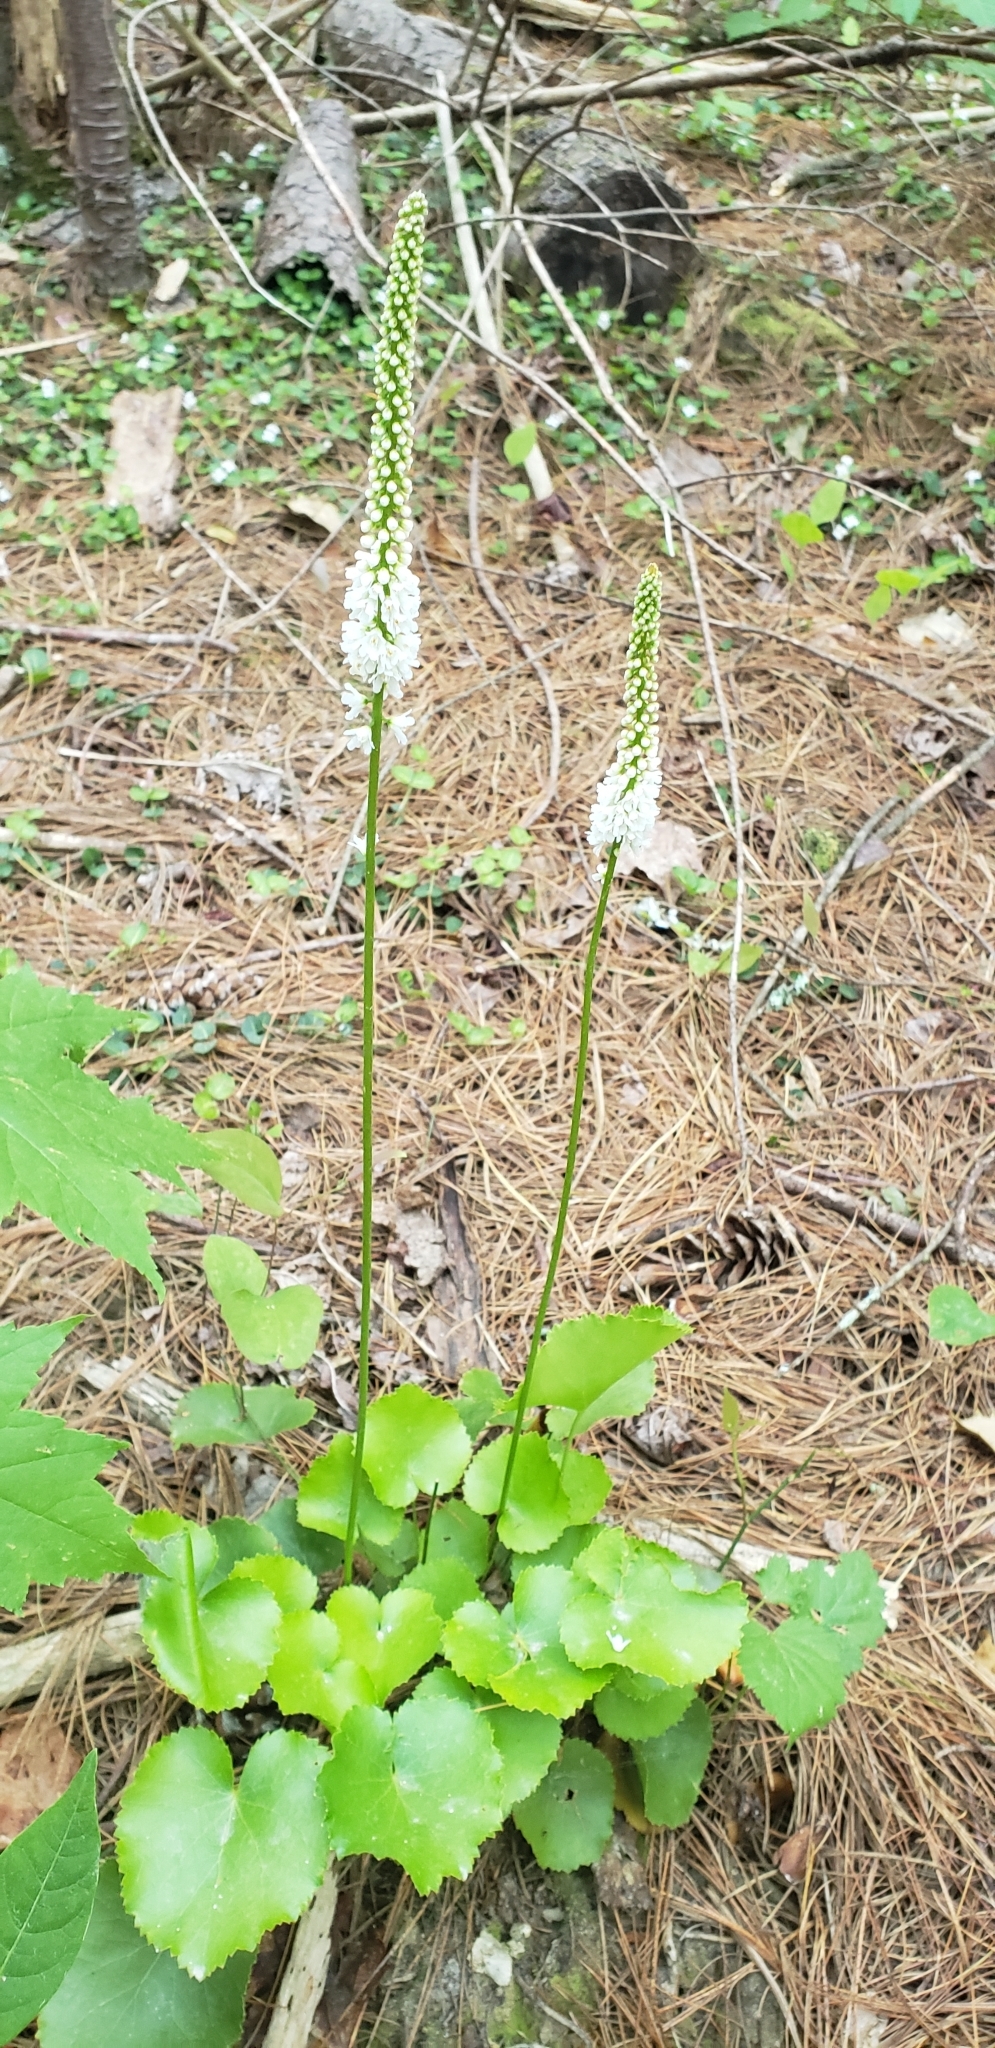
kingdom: Plantae
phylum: Tracheophyta
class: Magnoliopsida
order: Ericales
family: Diapensiaceae
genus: Galax
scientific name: Galax urceolata
